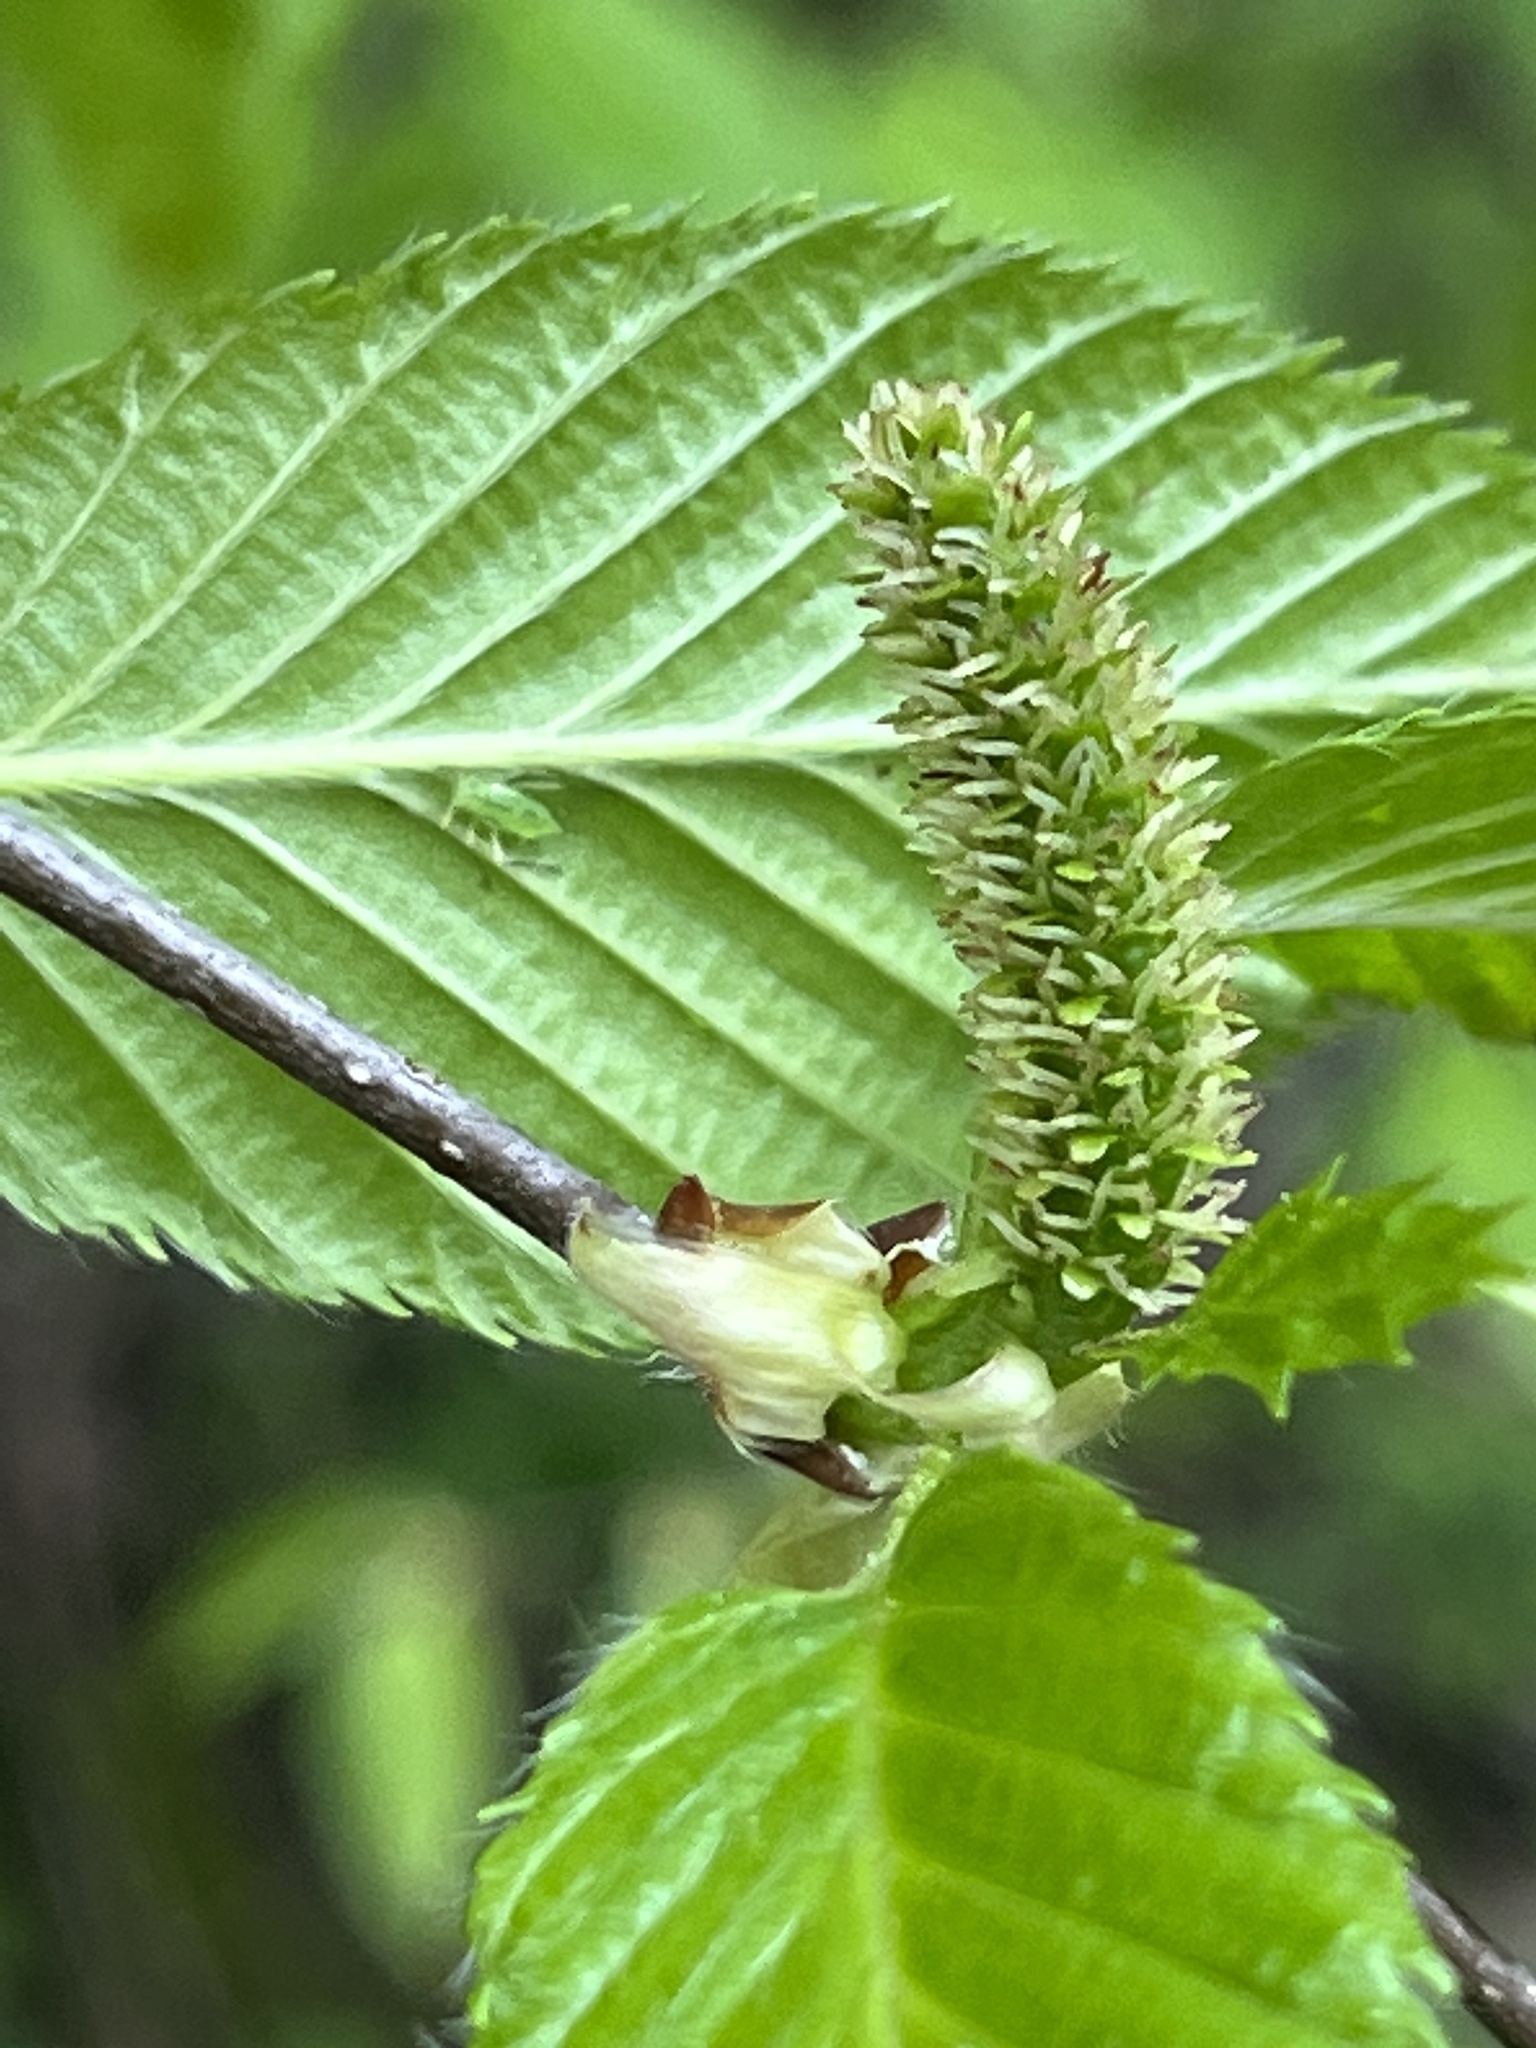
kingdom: Plantae
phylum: Tracheophyta
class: Magnoliopsida
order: Fagales
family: Betulaceae
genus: Betula
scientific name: Betula lenta
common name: Black birch
